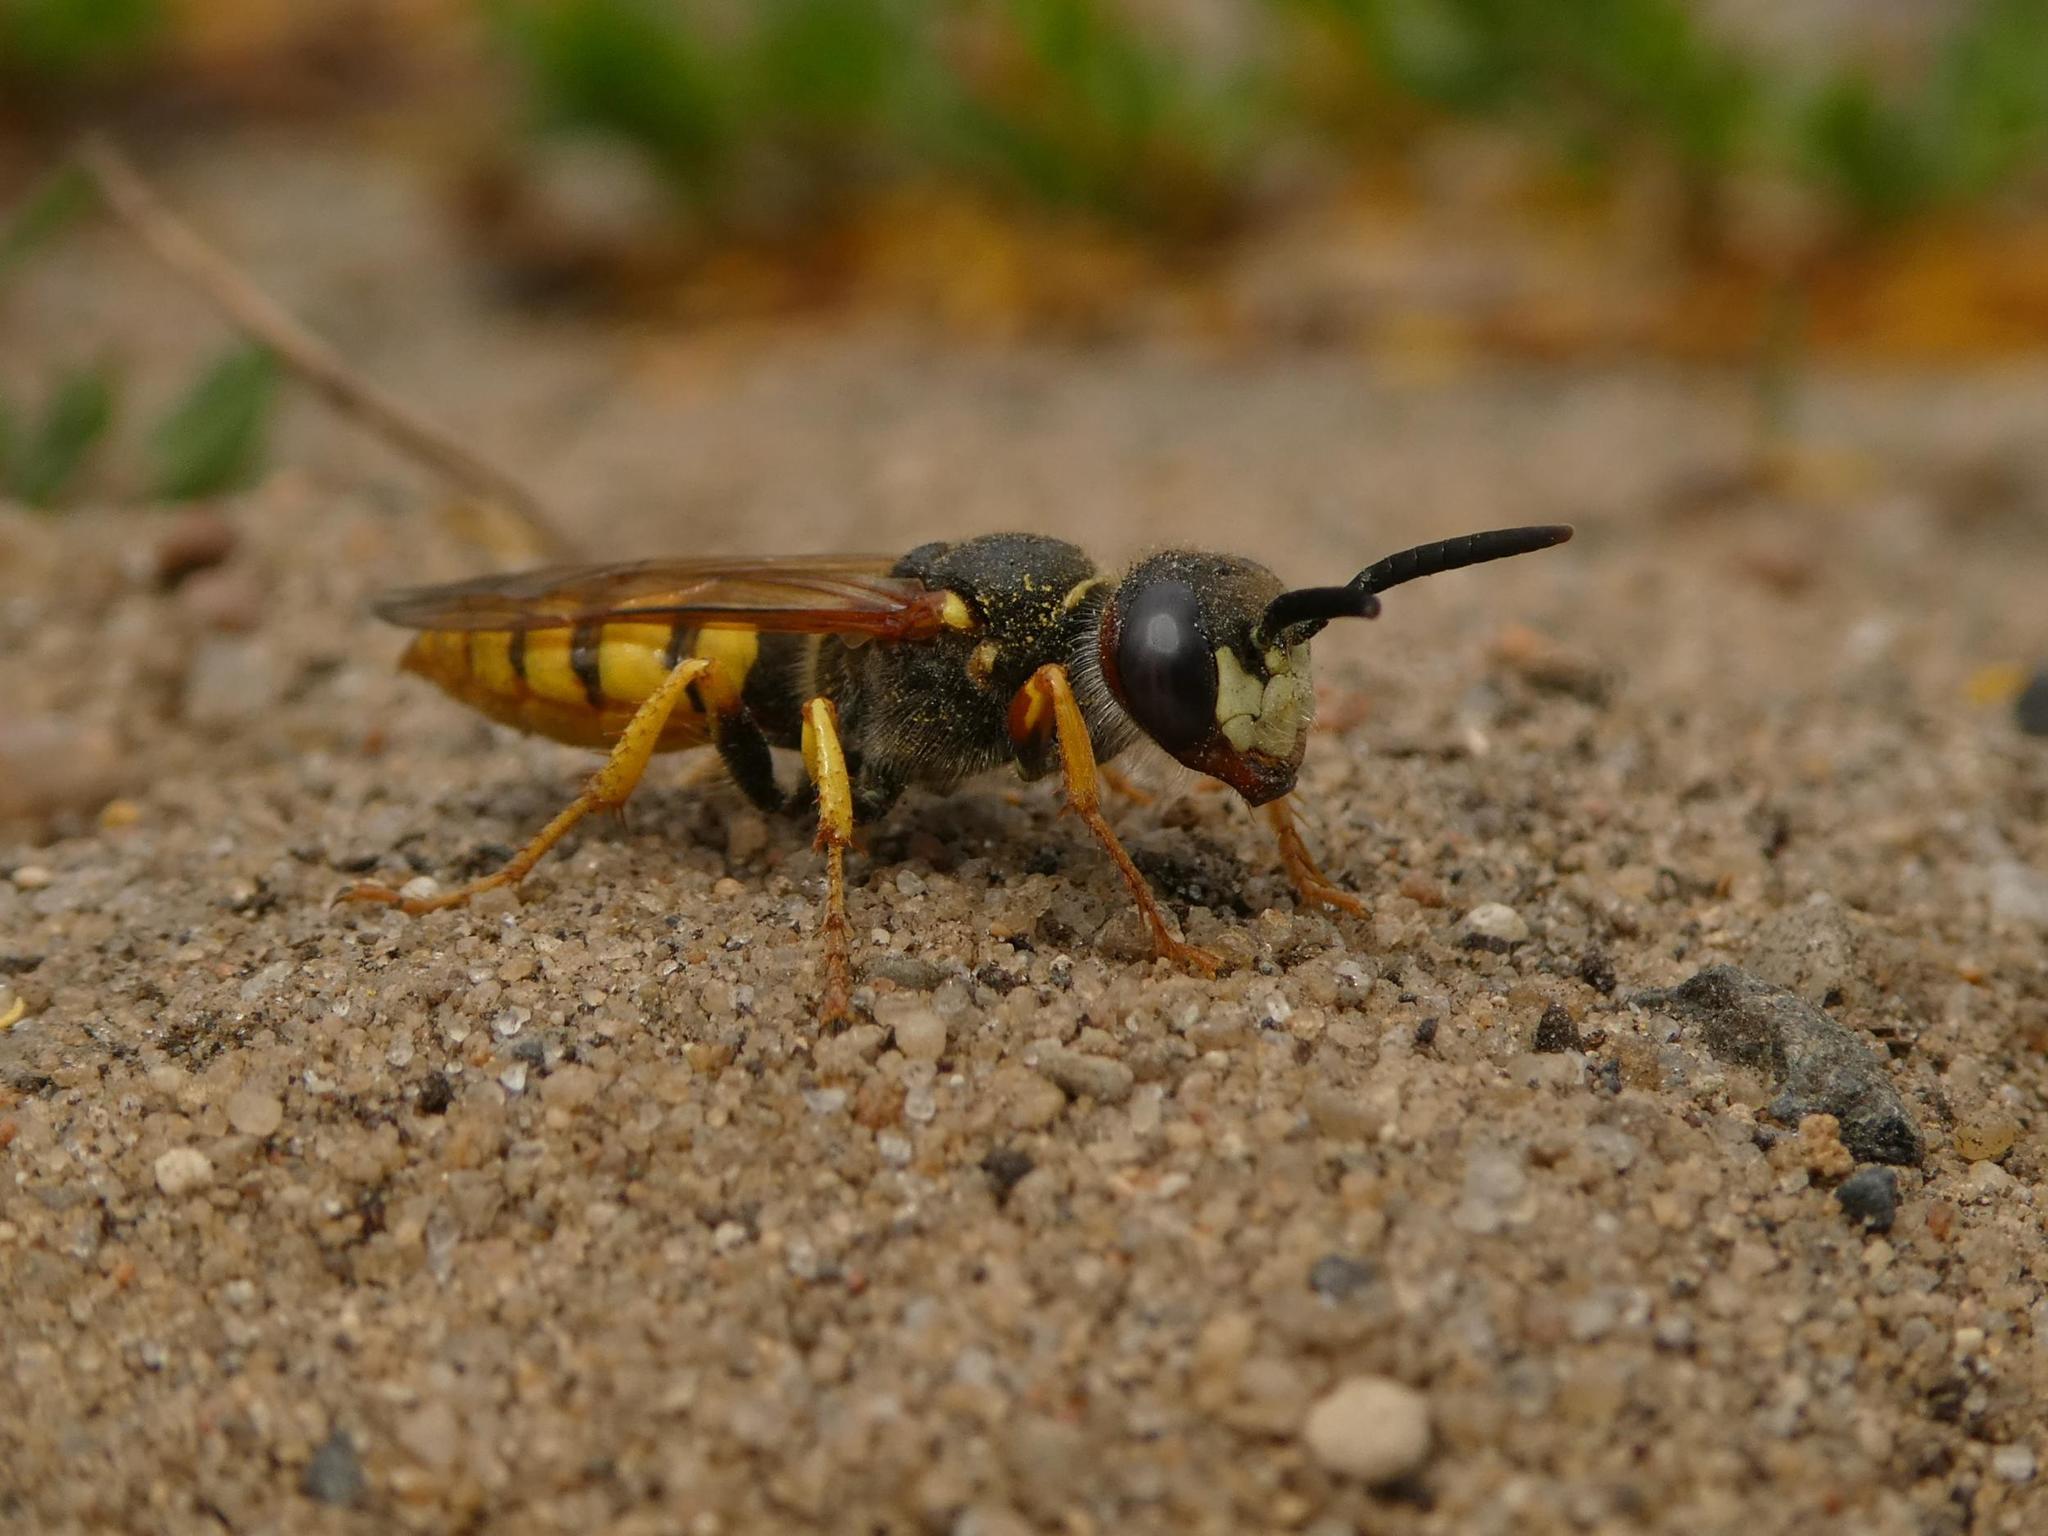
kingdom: Animalia
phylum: Arthropoda
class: Insecta
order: Hymenoptera
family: Crabronidae
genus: Philanthus
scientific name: Philanthus triangulum
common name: Bee wolf
